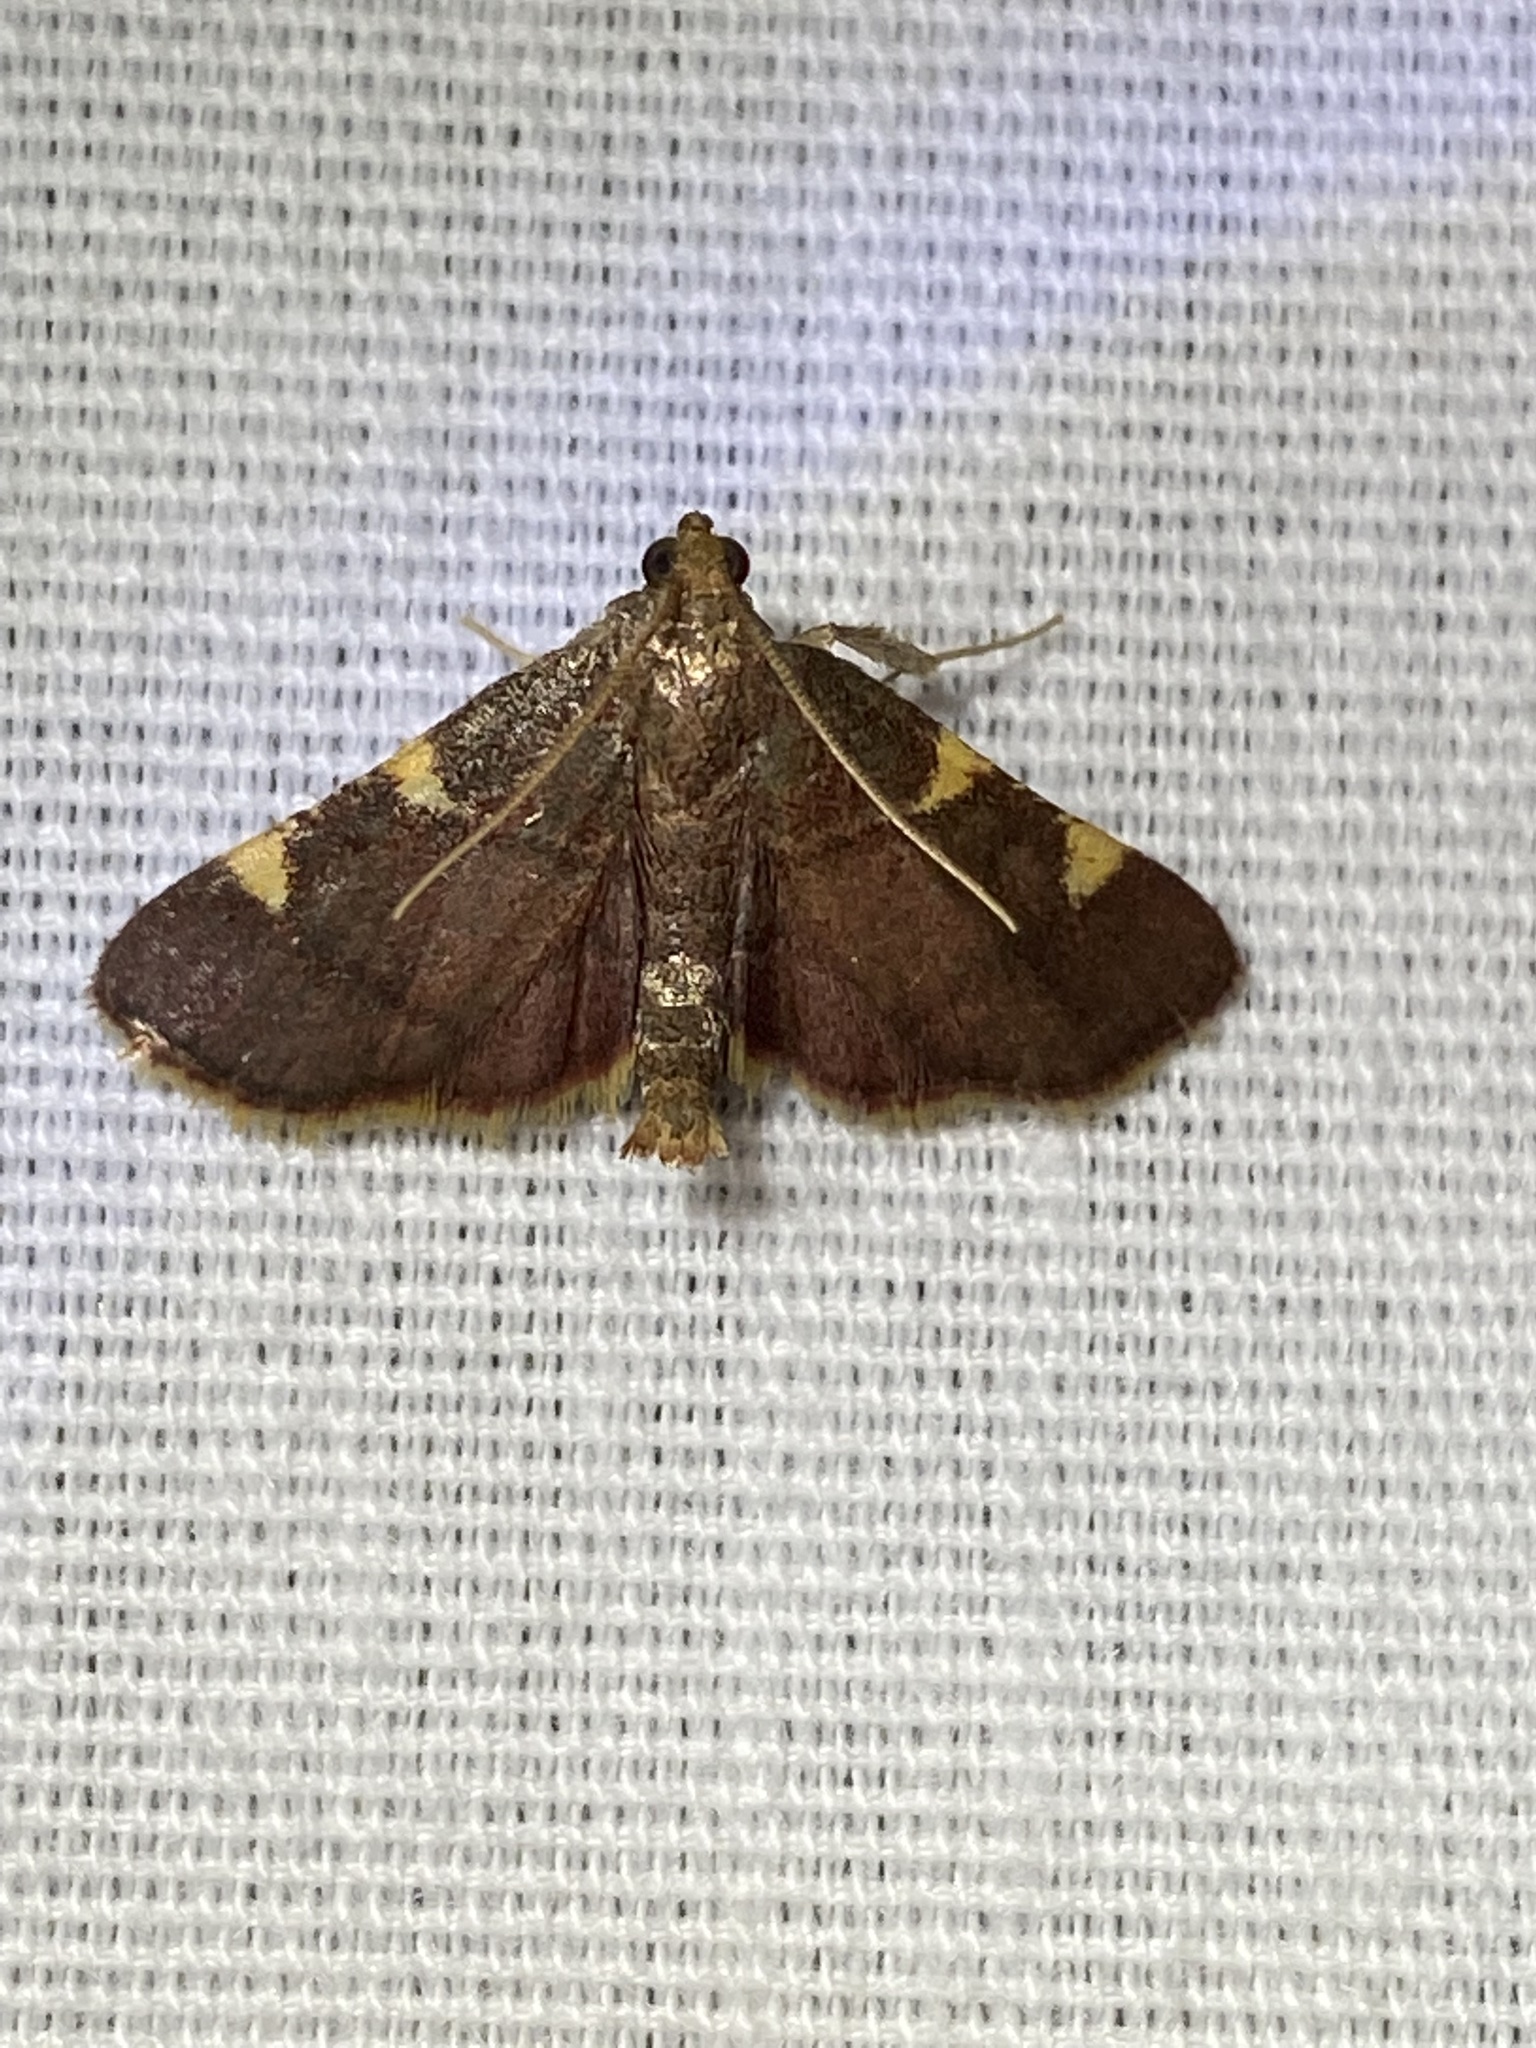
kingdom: Animalia
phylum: Arthropoda
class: Insecta
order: Lepidoptera
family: Pyralidae
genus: Hypsopygia
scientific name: Hypsopygia olinalis
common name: Yellow-fringed dolichomia moth
